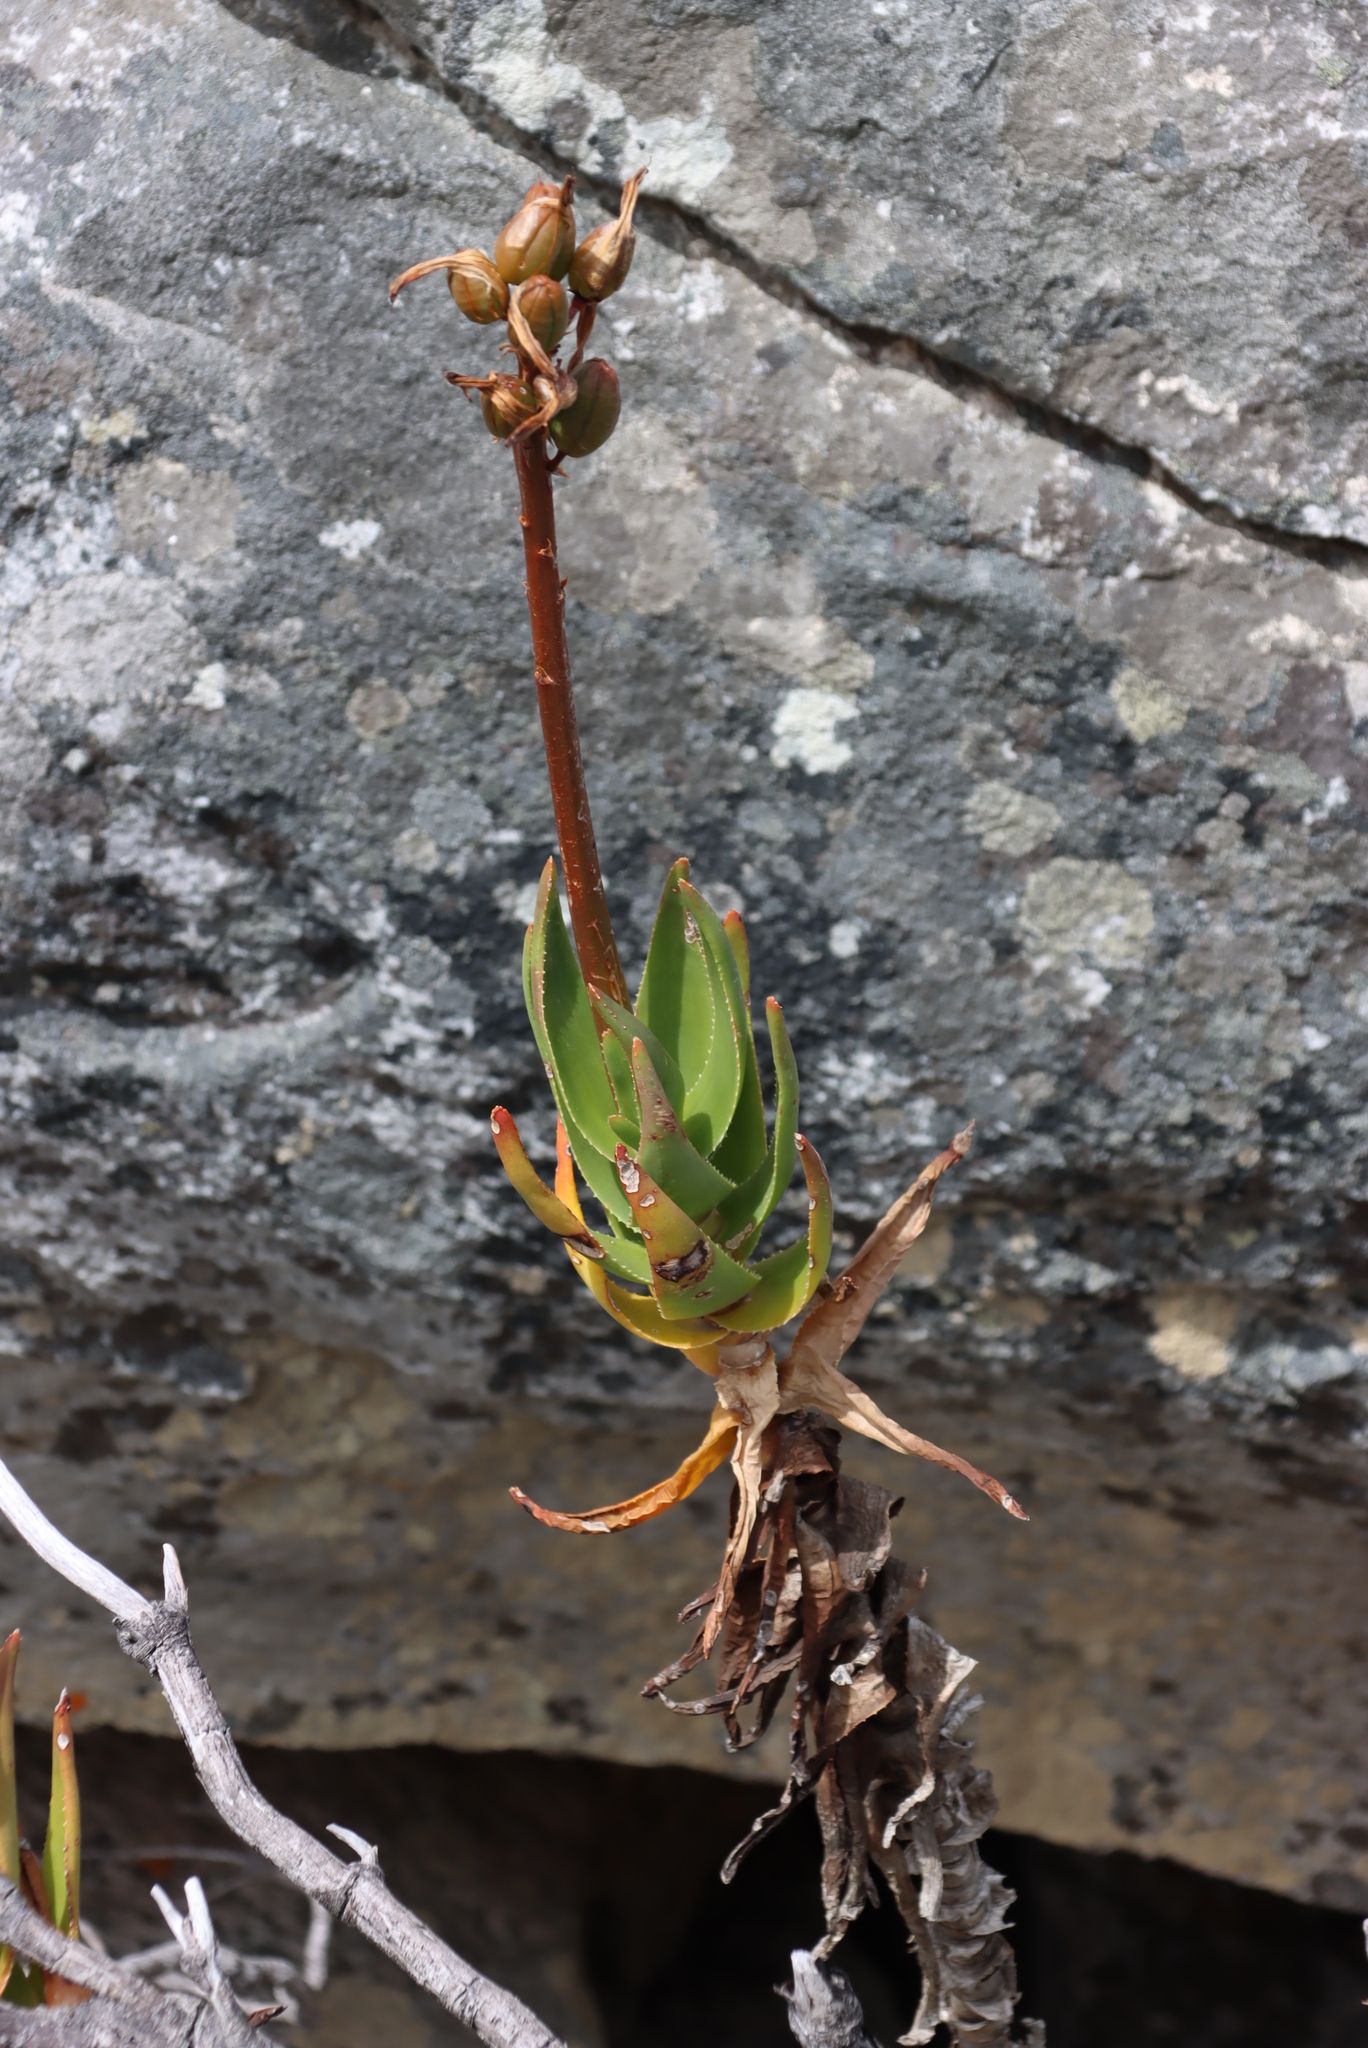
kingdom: Plantae
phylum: Tracheophyta
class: Liliopsida
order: Asparagales
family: Asphodelaceae
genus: Aloiampelos
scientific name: Aloiampelos commixta
